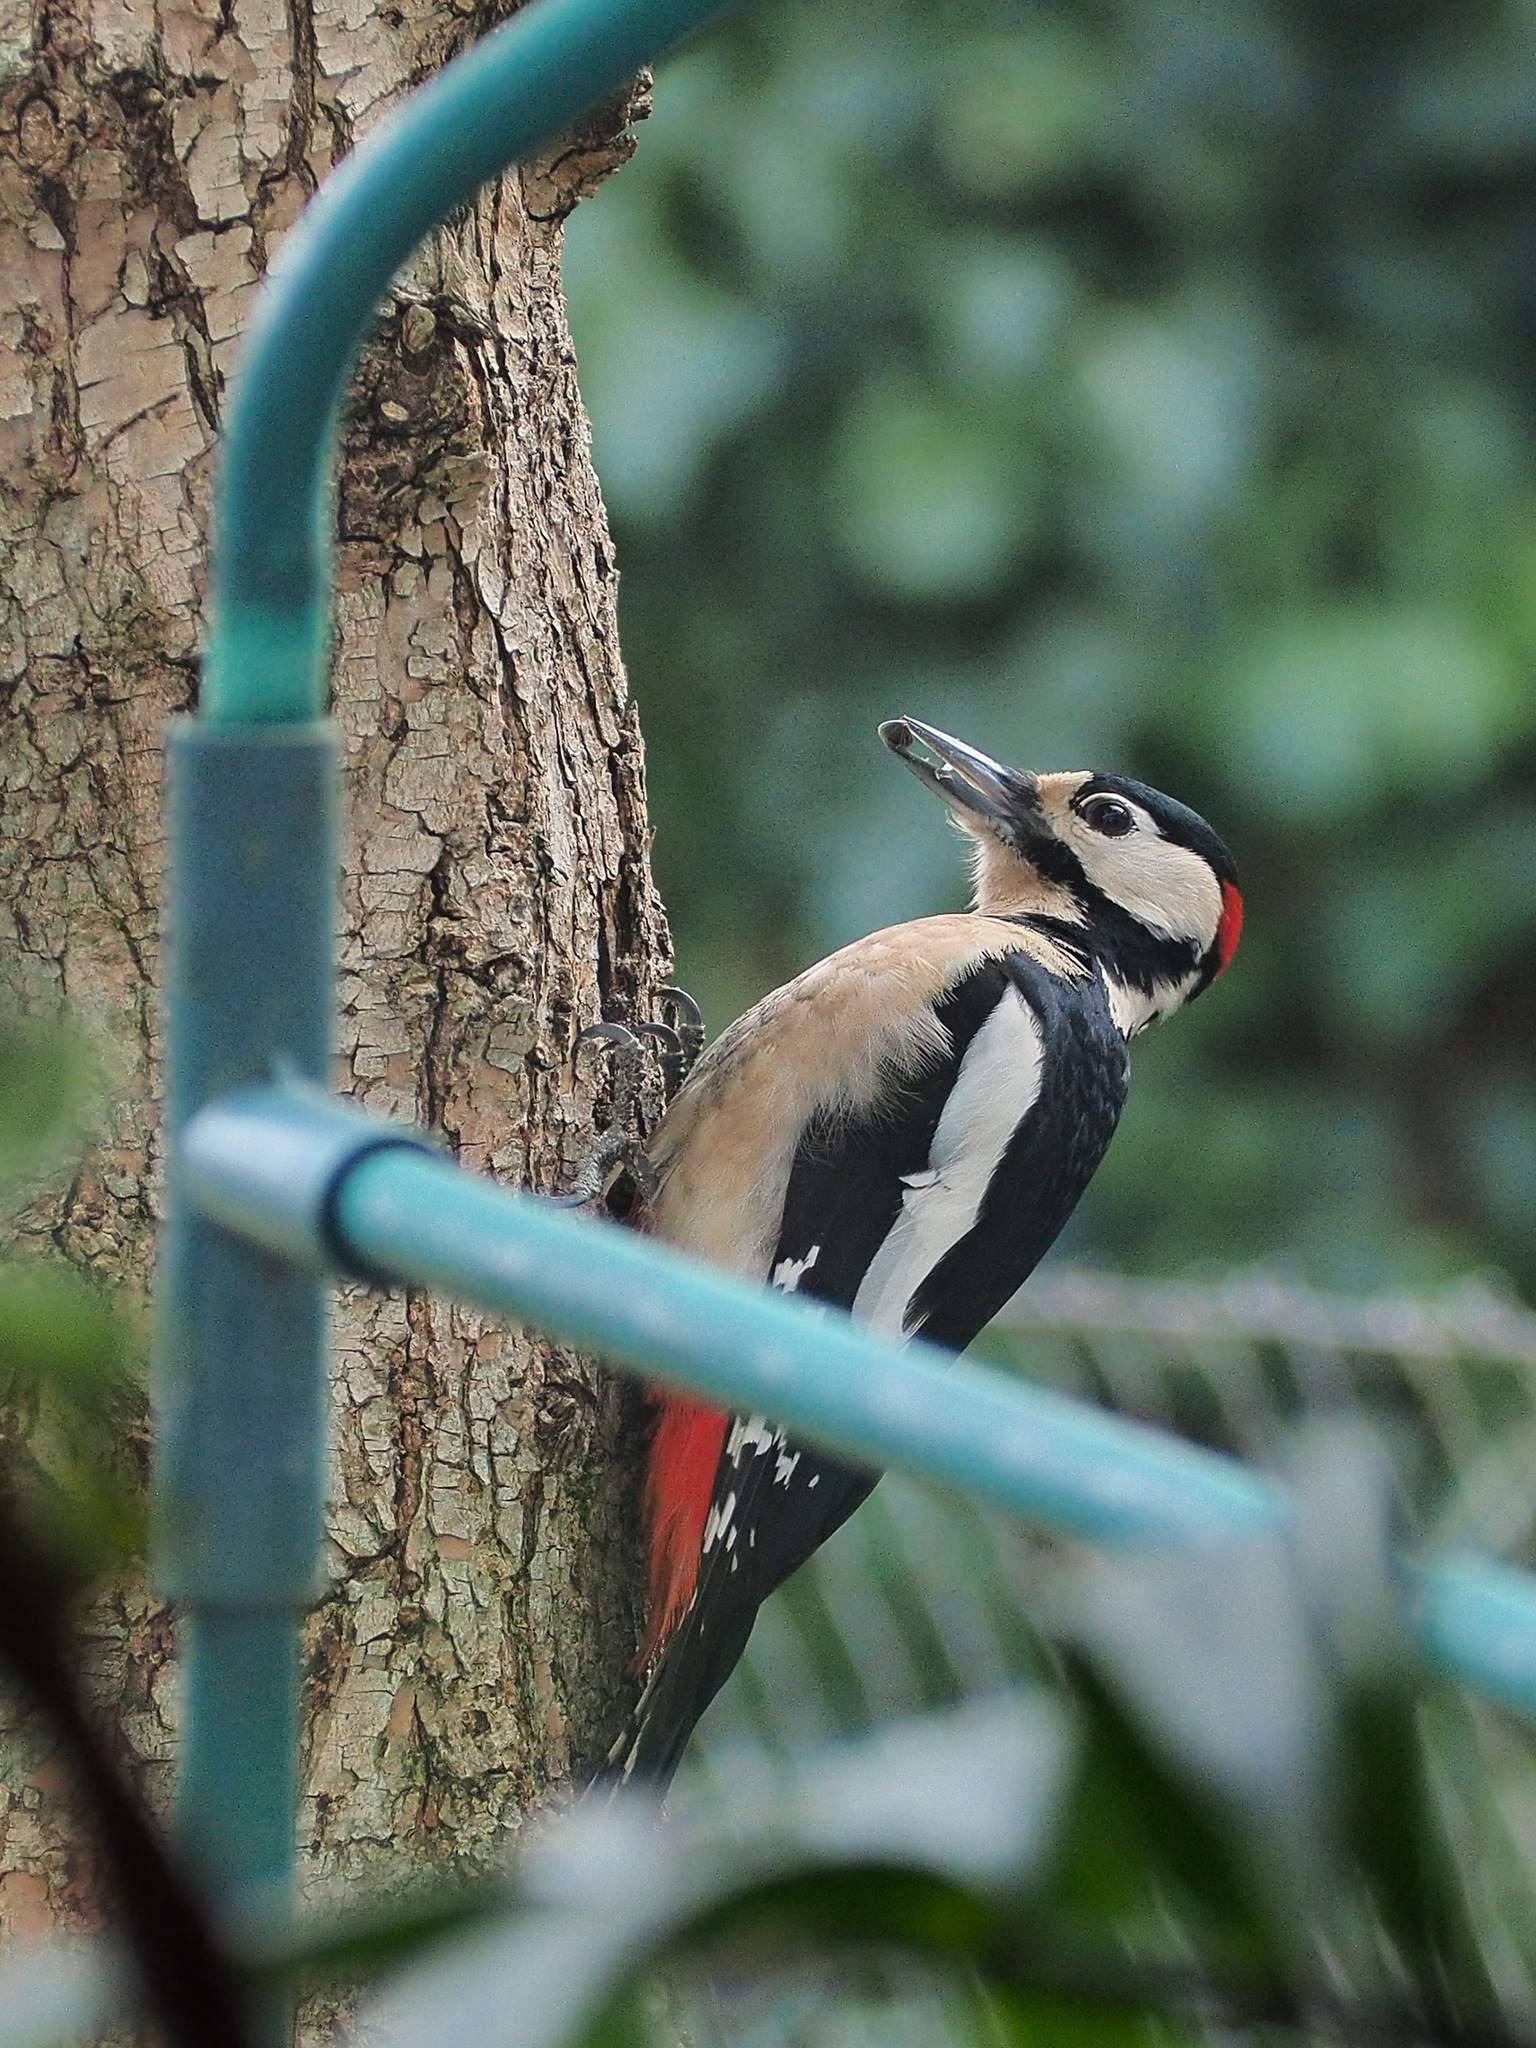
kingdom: Animalia
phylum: Chordata
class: Aves
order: Piciformes
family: Picidae
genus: Dendrocopos
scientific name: Dendrocopos major
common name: Great spotted woodpecker
